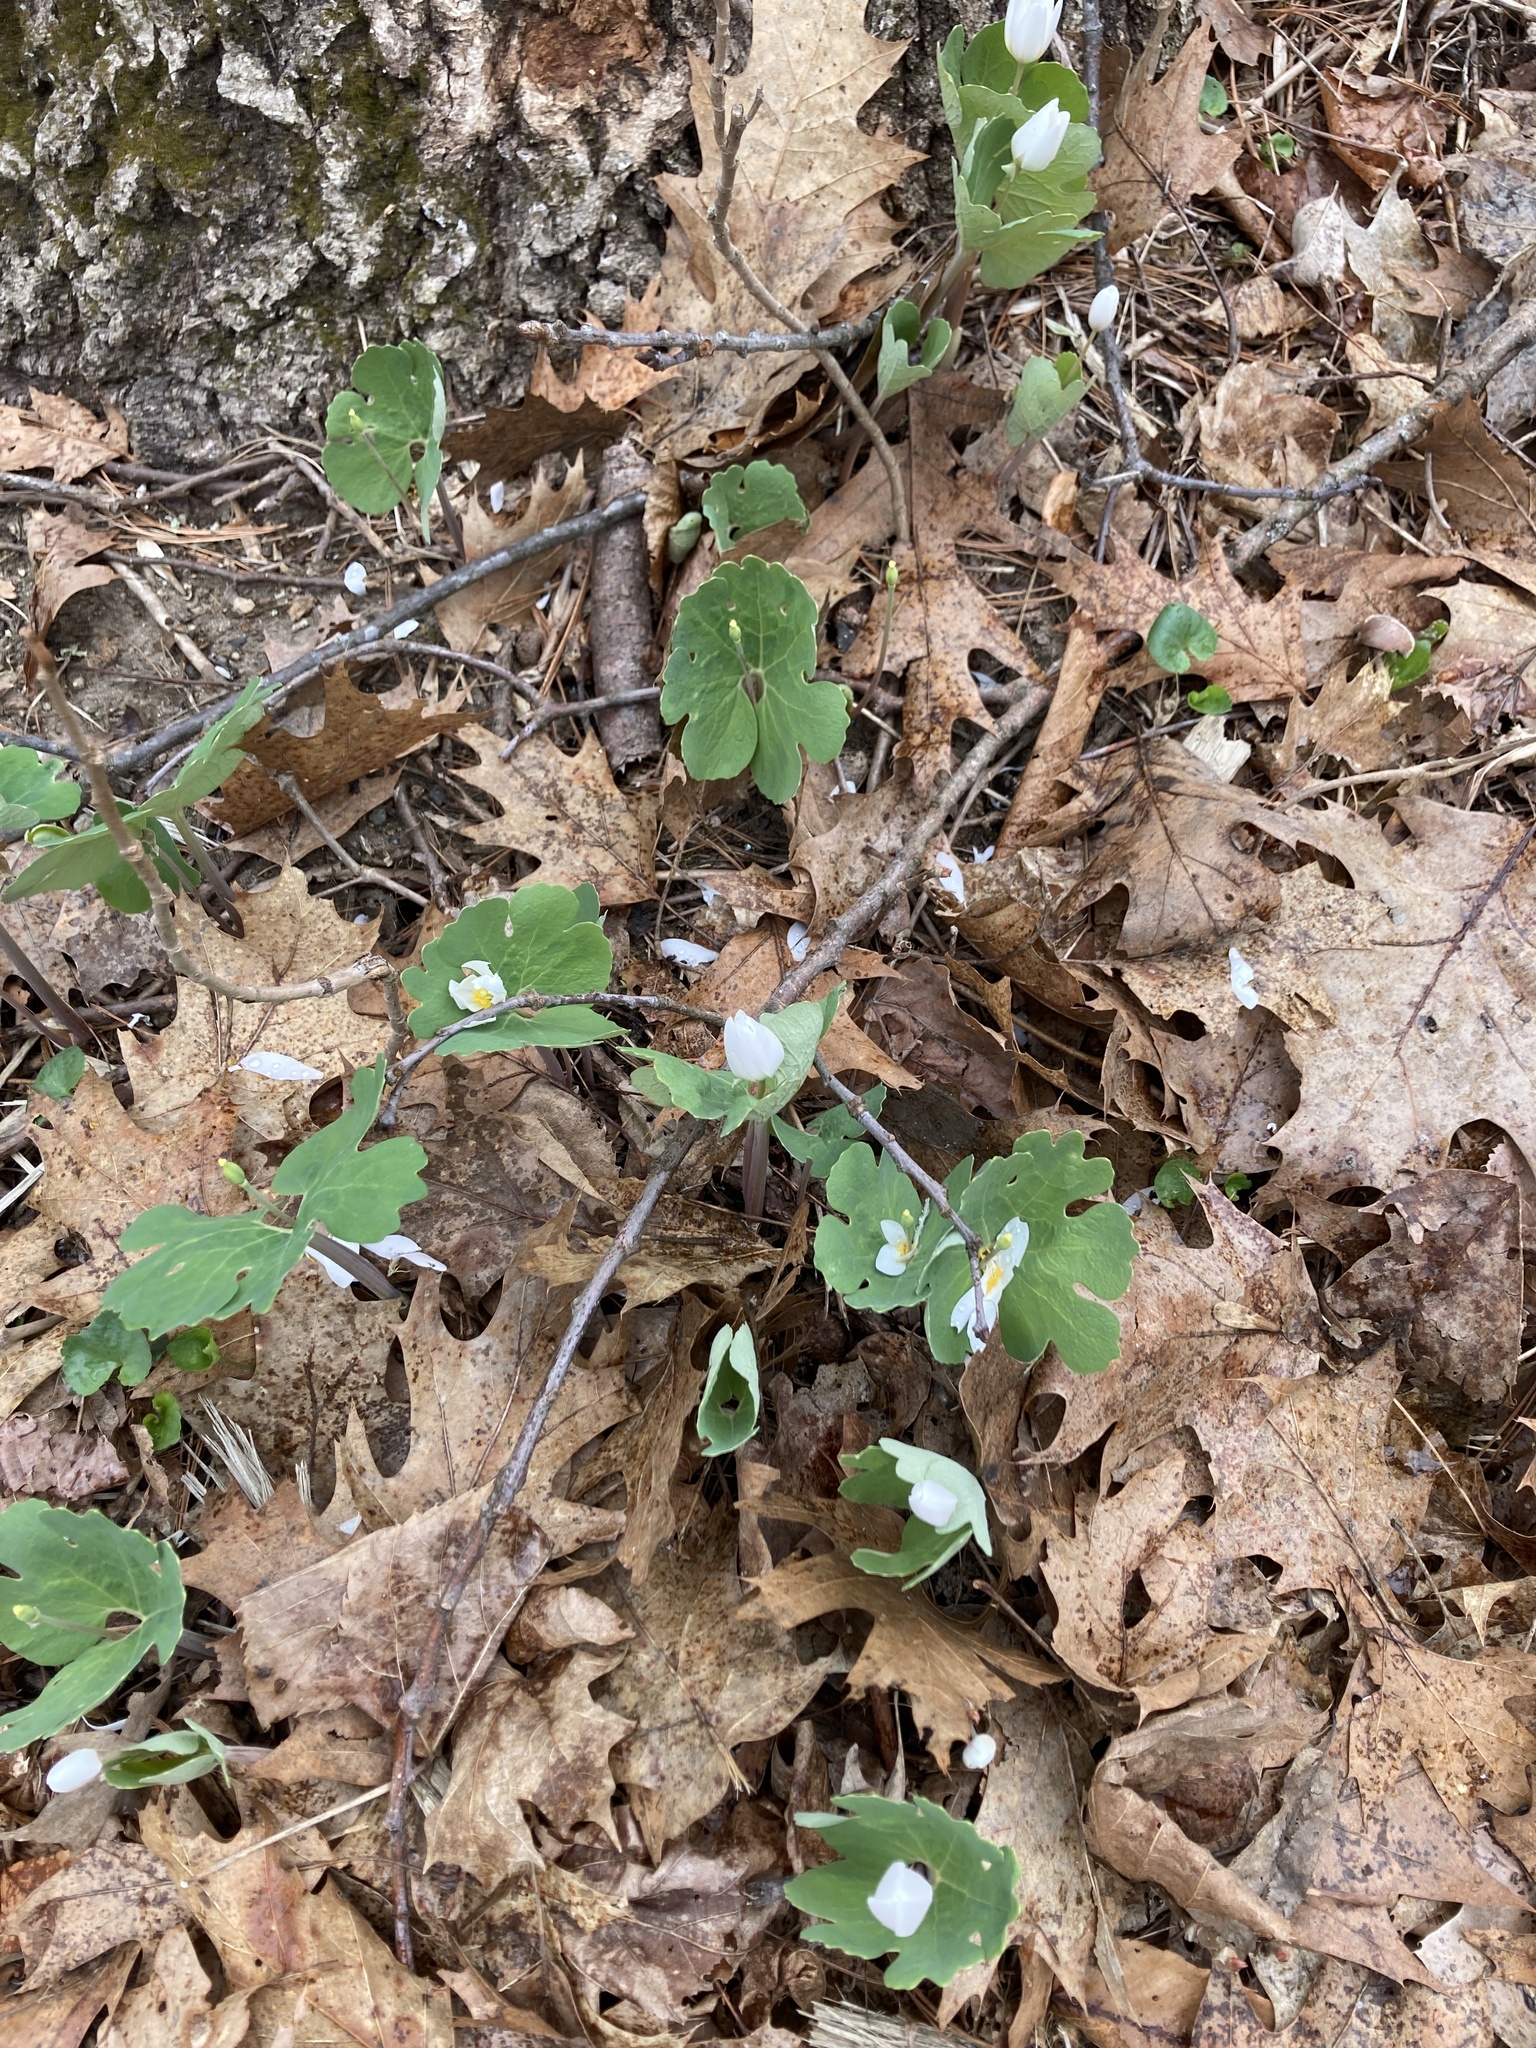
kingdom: Plantae
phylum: Tracheophyta
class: Magnoliopsida
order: Ranunculales
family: Papaveraceae
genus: Sanguinaria
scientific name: Sanguinaria canadensis
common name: Bloodroot
